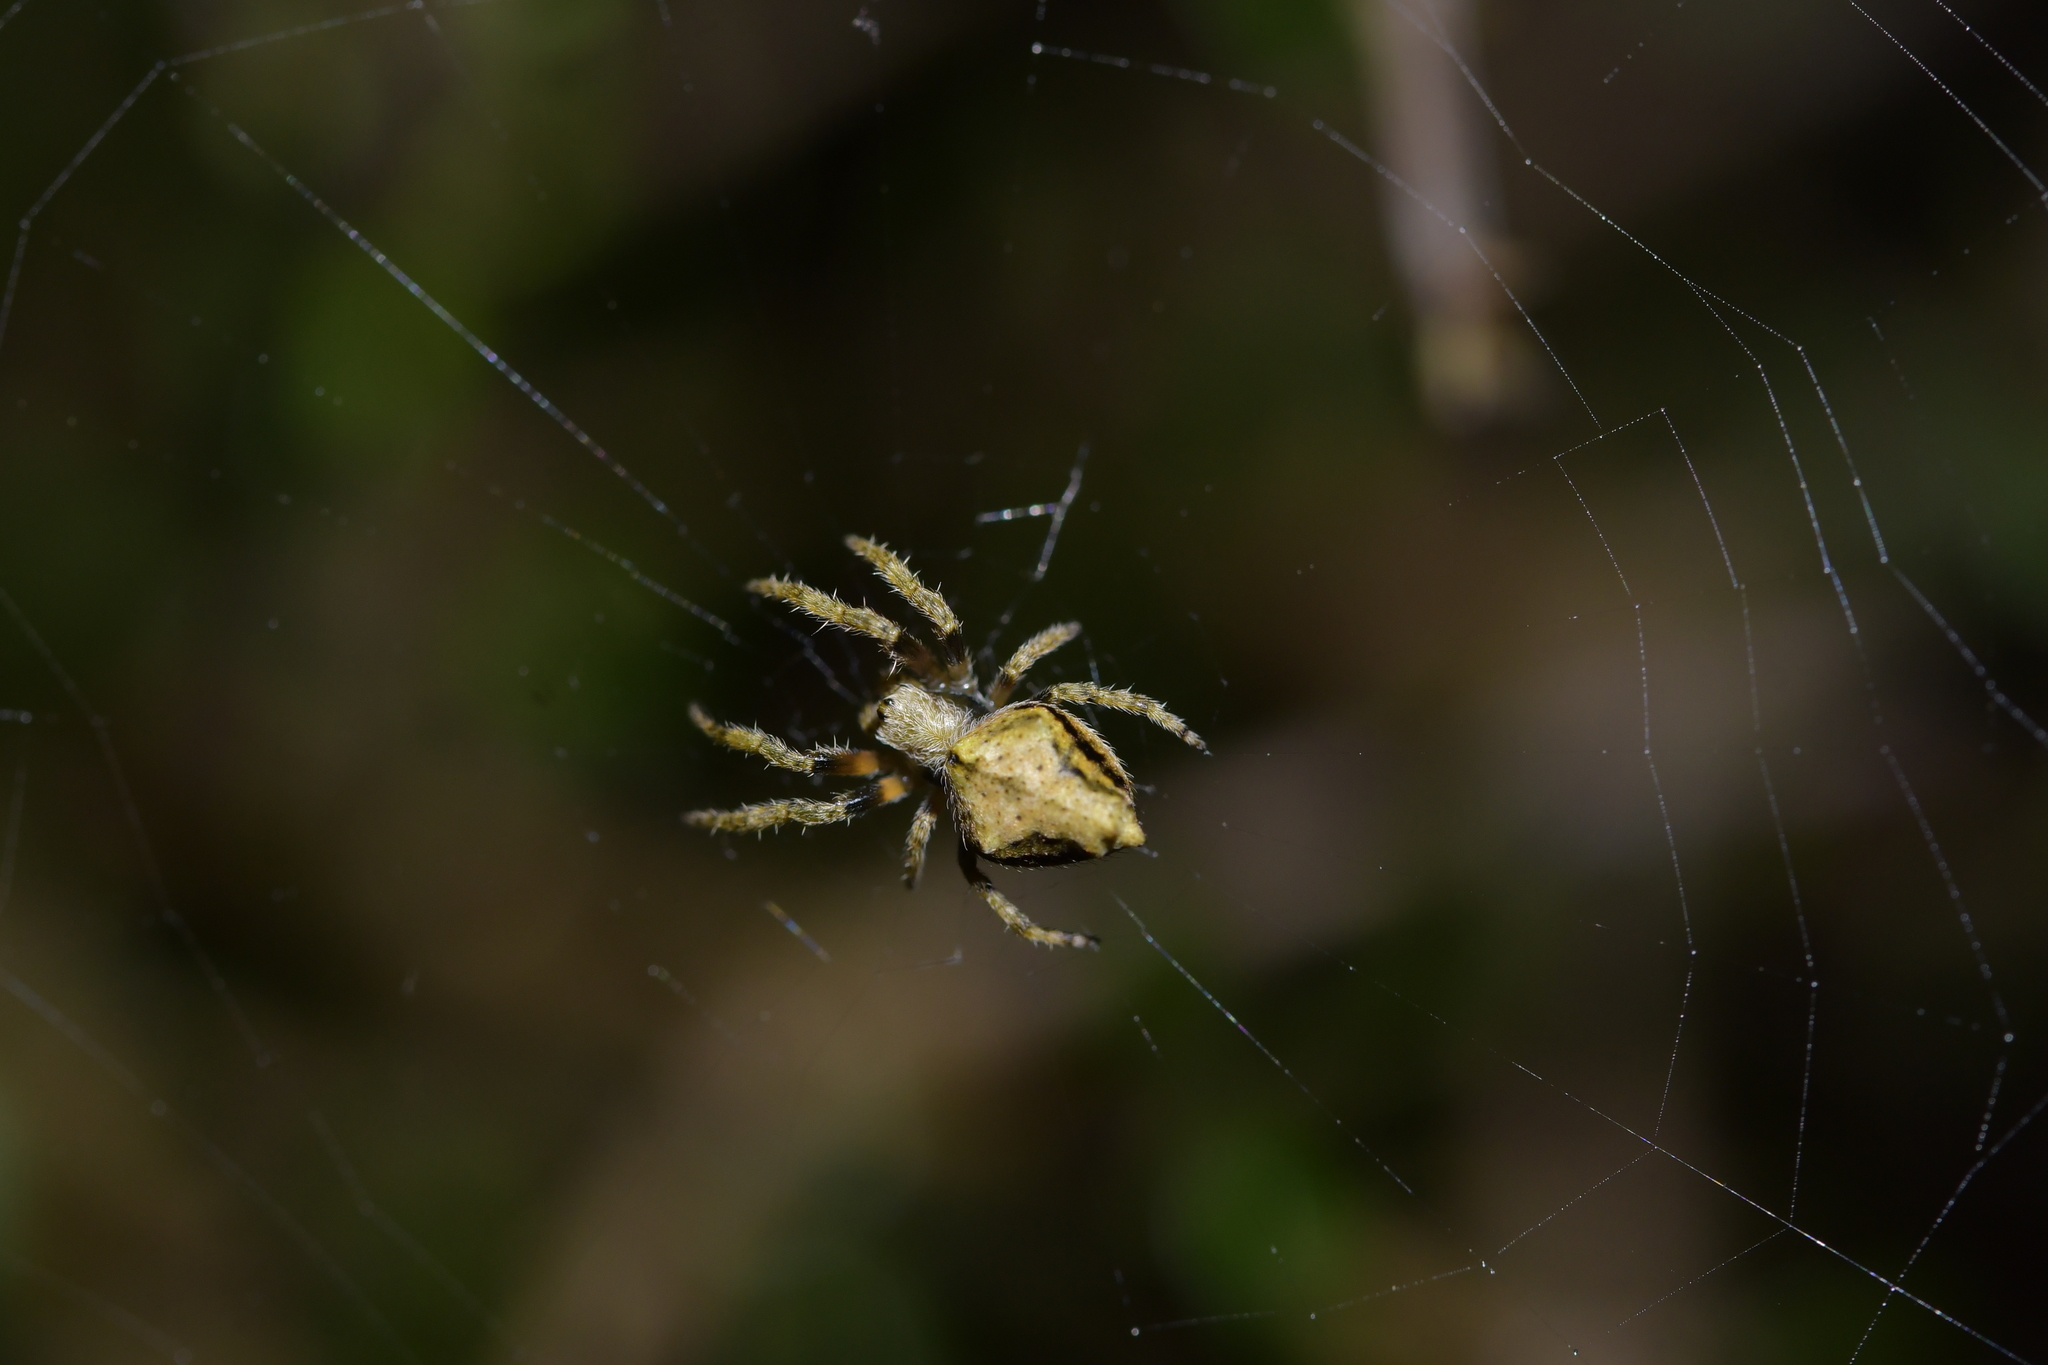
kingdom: Animalia
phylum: Arthropoda
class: Arachnida
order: Araneae
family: Araneidae
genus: Eriophora
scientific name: Eriophora pustulosa
